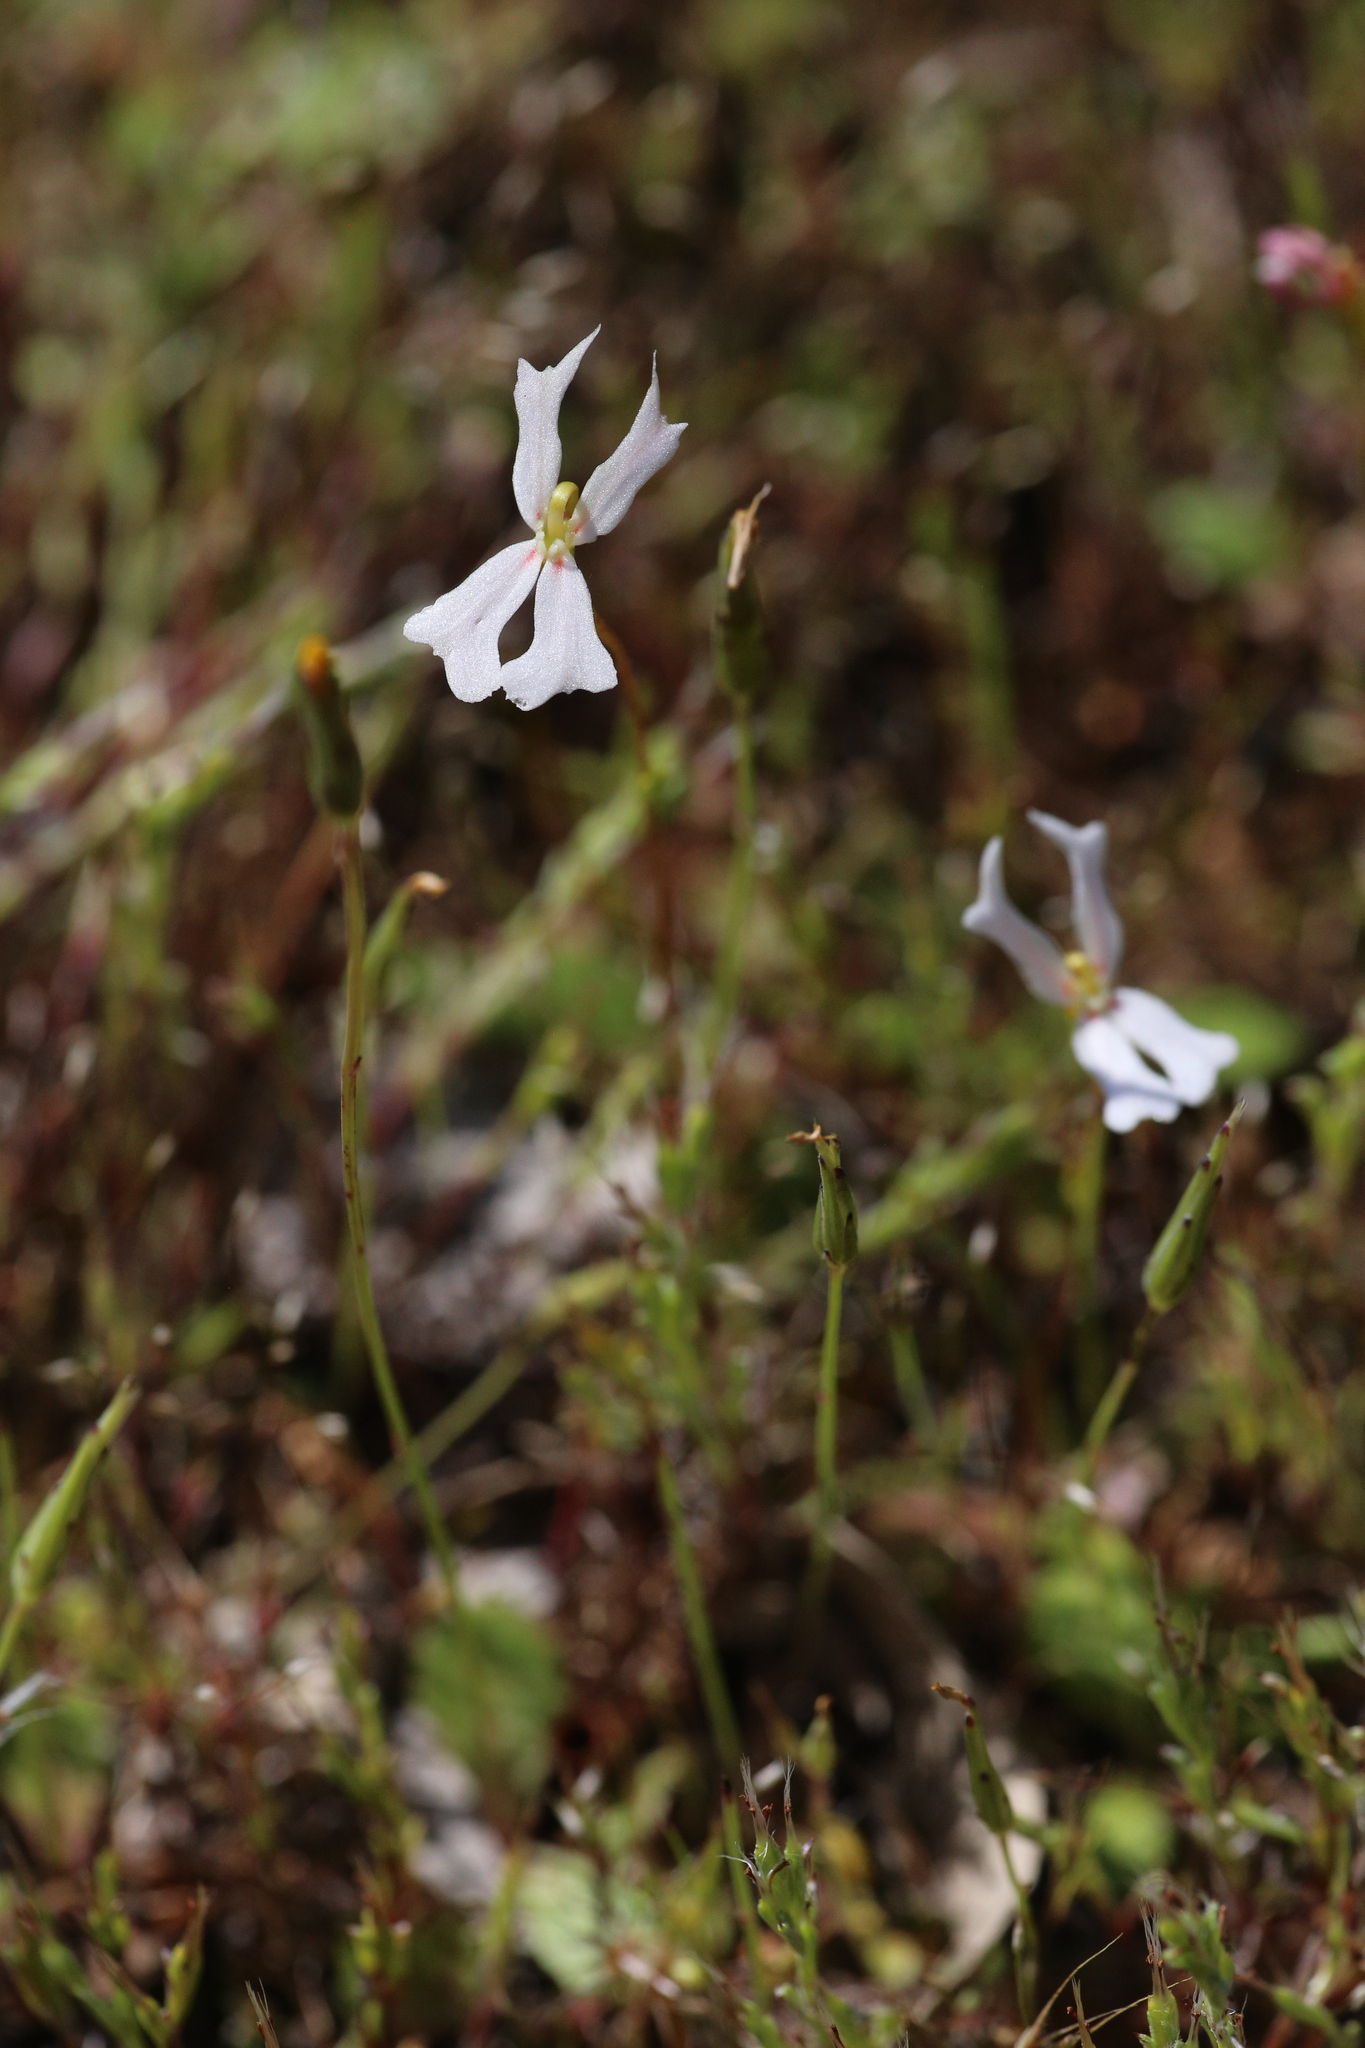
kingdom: Plantae
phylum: Tracheophyta
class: Magnoliopsida
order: Asterales
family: Stylidiaceae
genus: Stylidium
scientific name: Stylidium emarginatum
